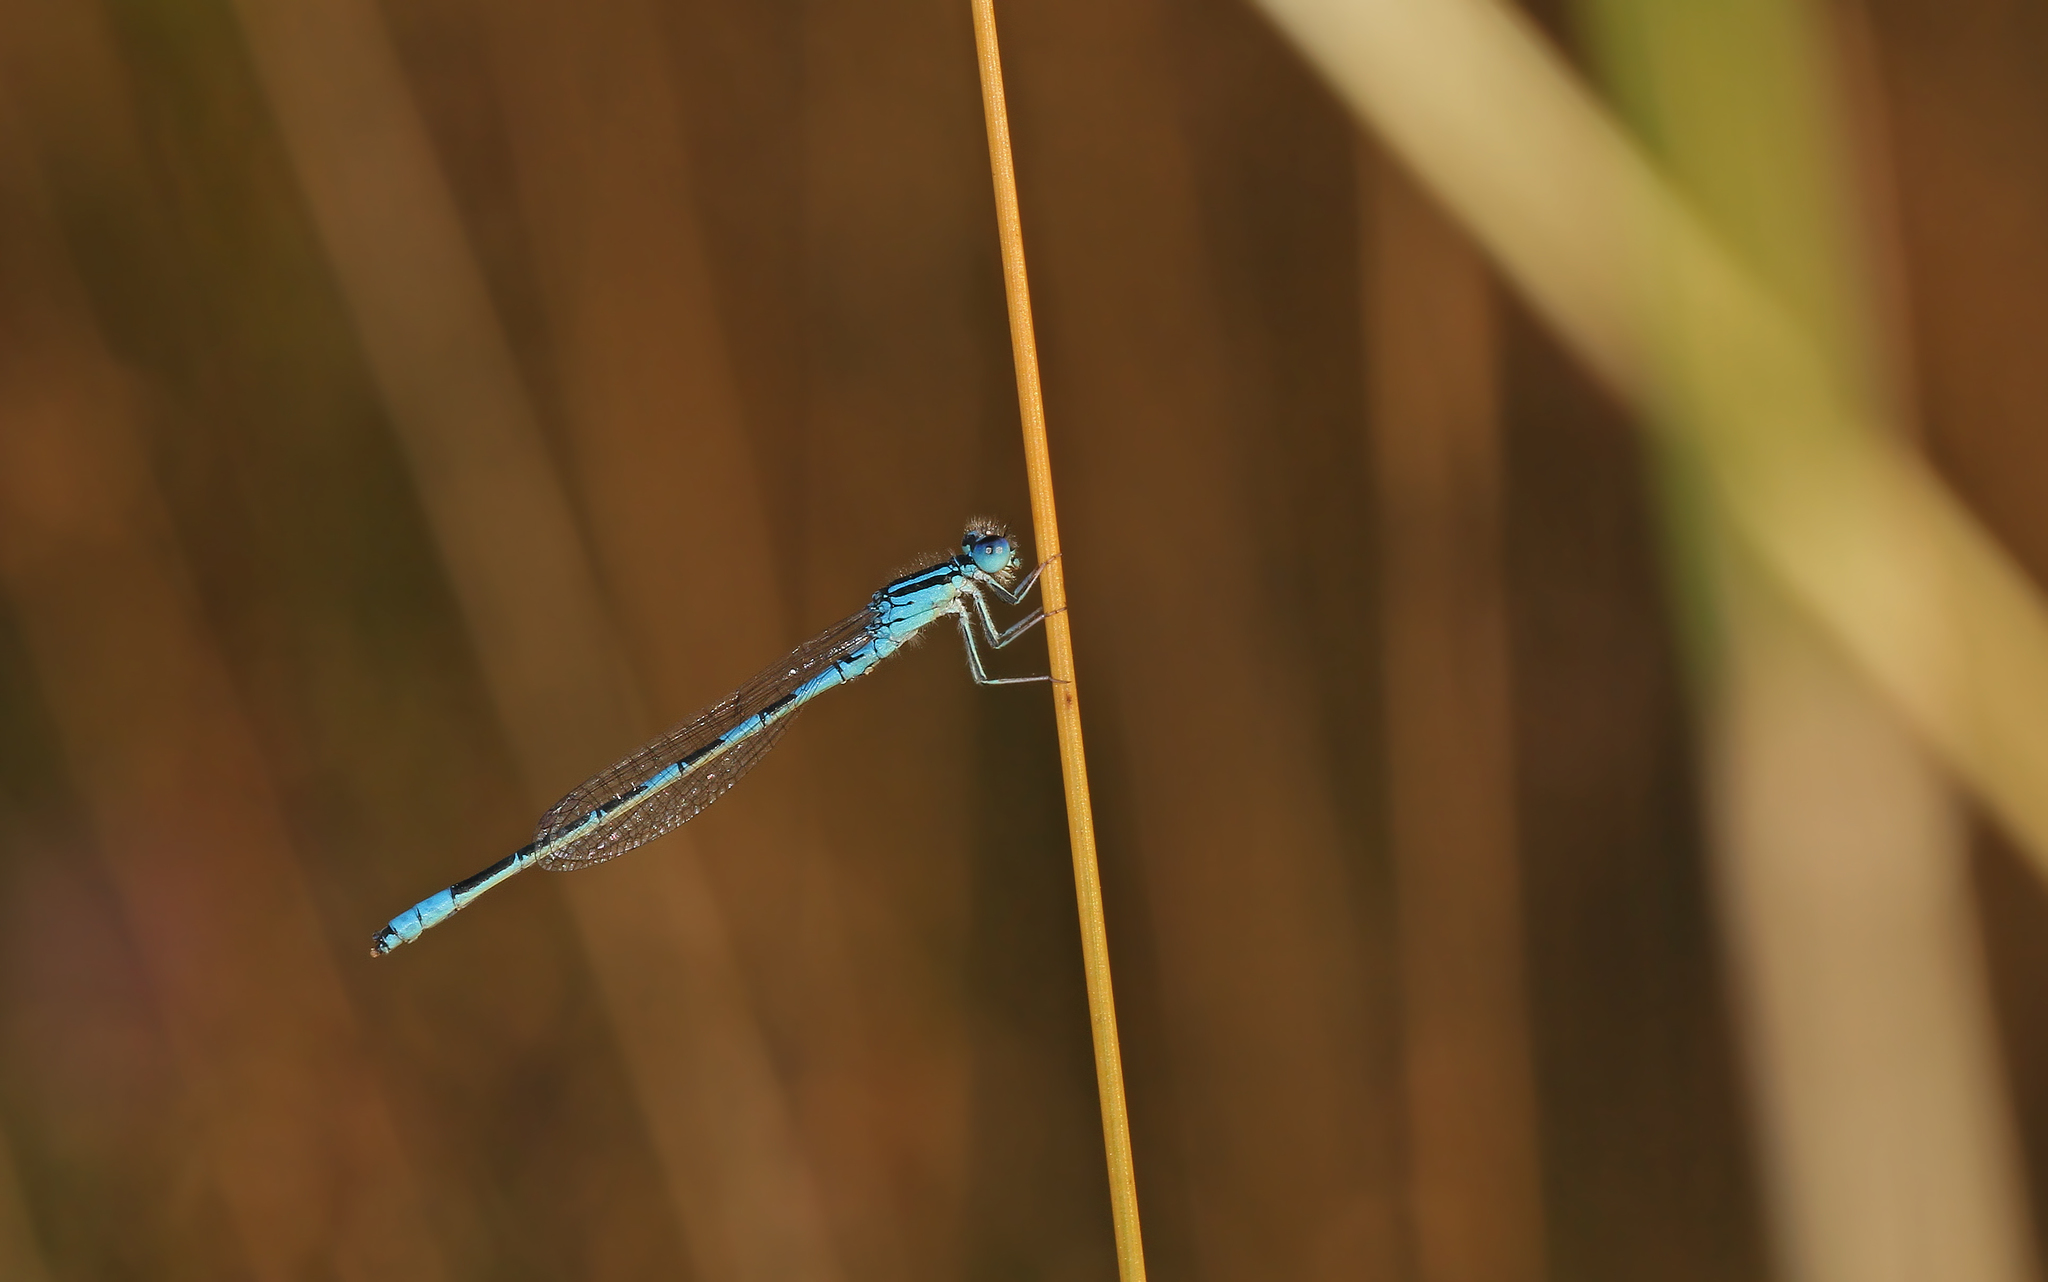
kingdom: Animalia
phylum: Arthropoda
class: Insecta
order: Odonata
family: Coenagrionidae
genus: Coenagrion
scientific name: Coenagrion scitulum
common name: Dainty bluet
